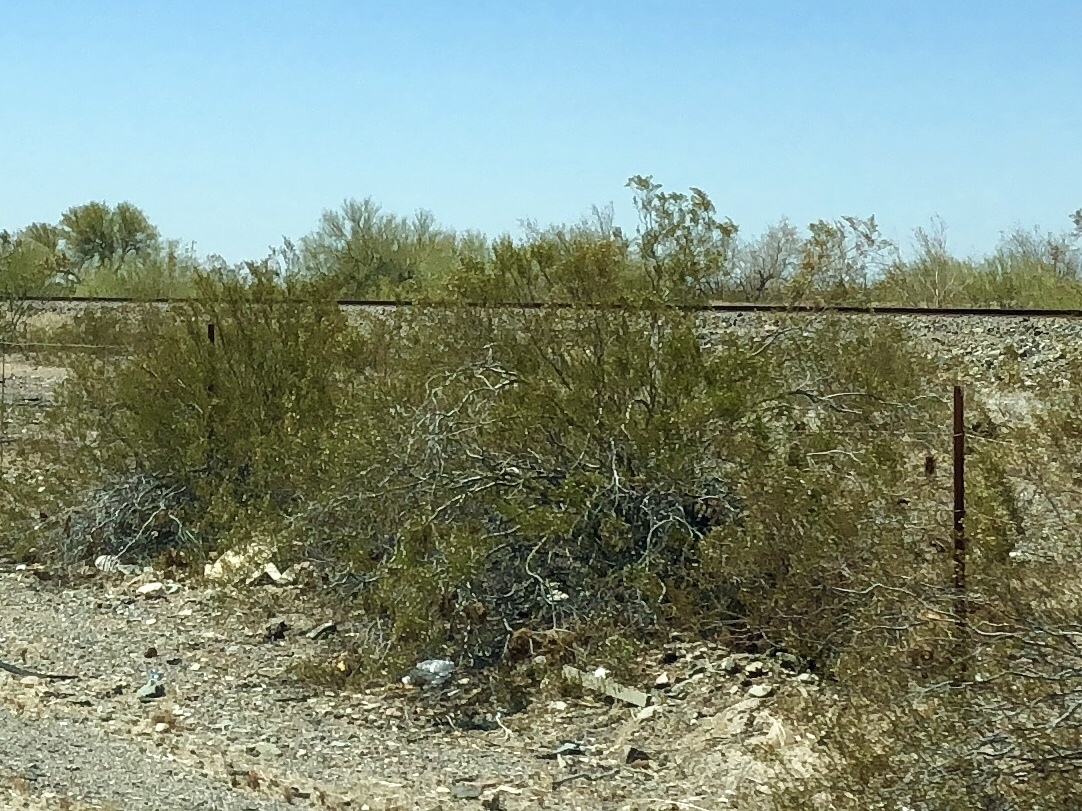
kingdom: Plantae
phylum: Tracheophyta
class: Magnoliopsida
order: Zygophyllales
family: Zygophyllaceae
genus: Larrea
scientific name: Larrea tridentata
